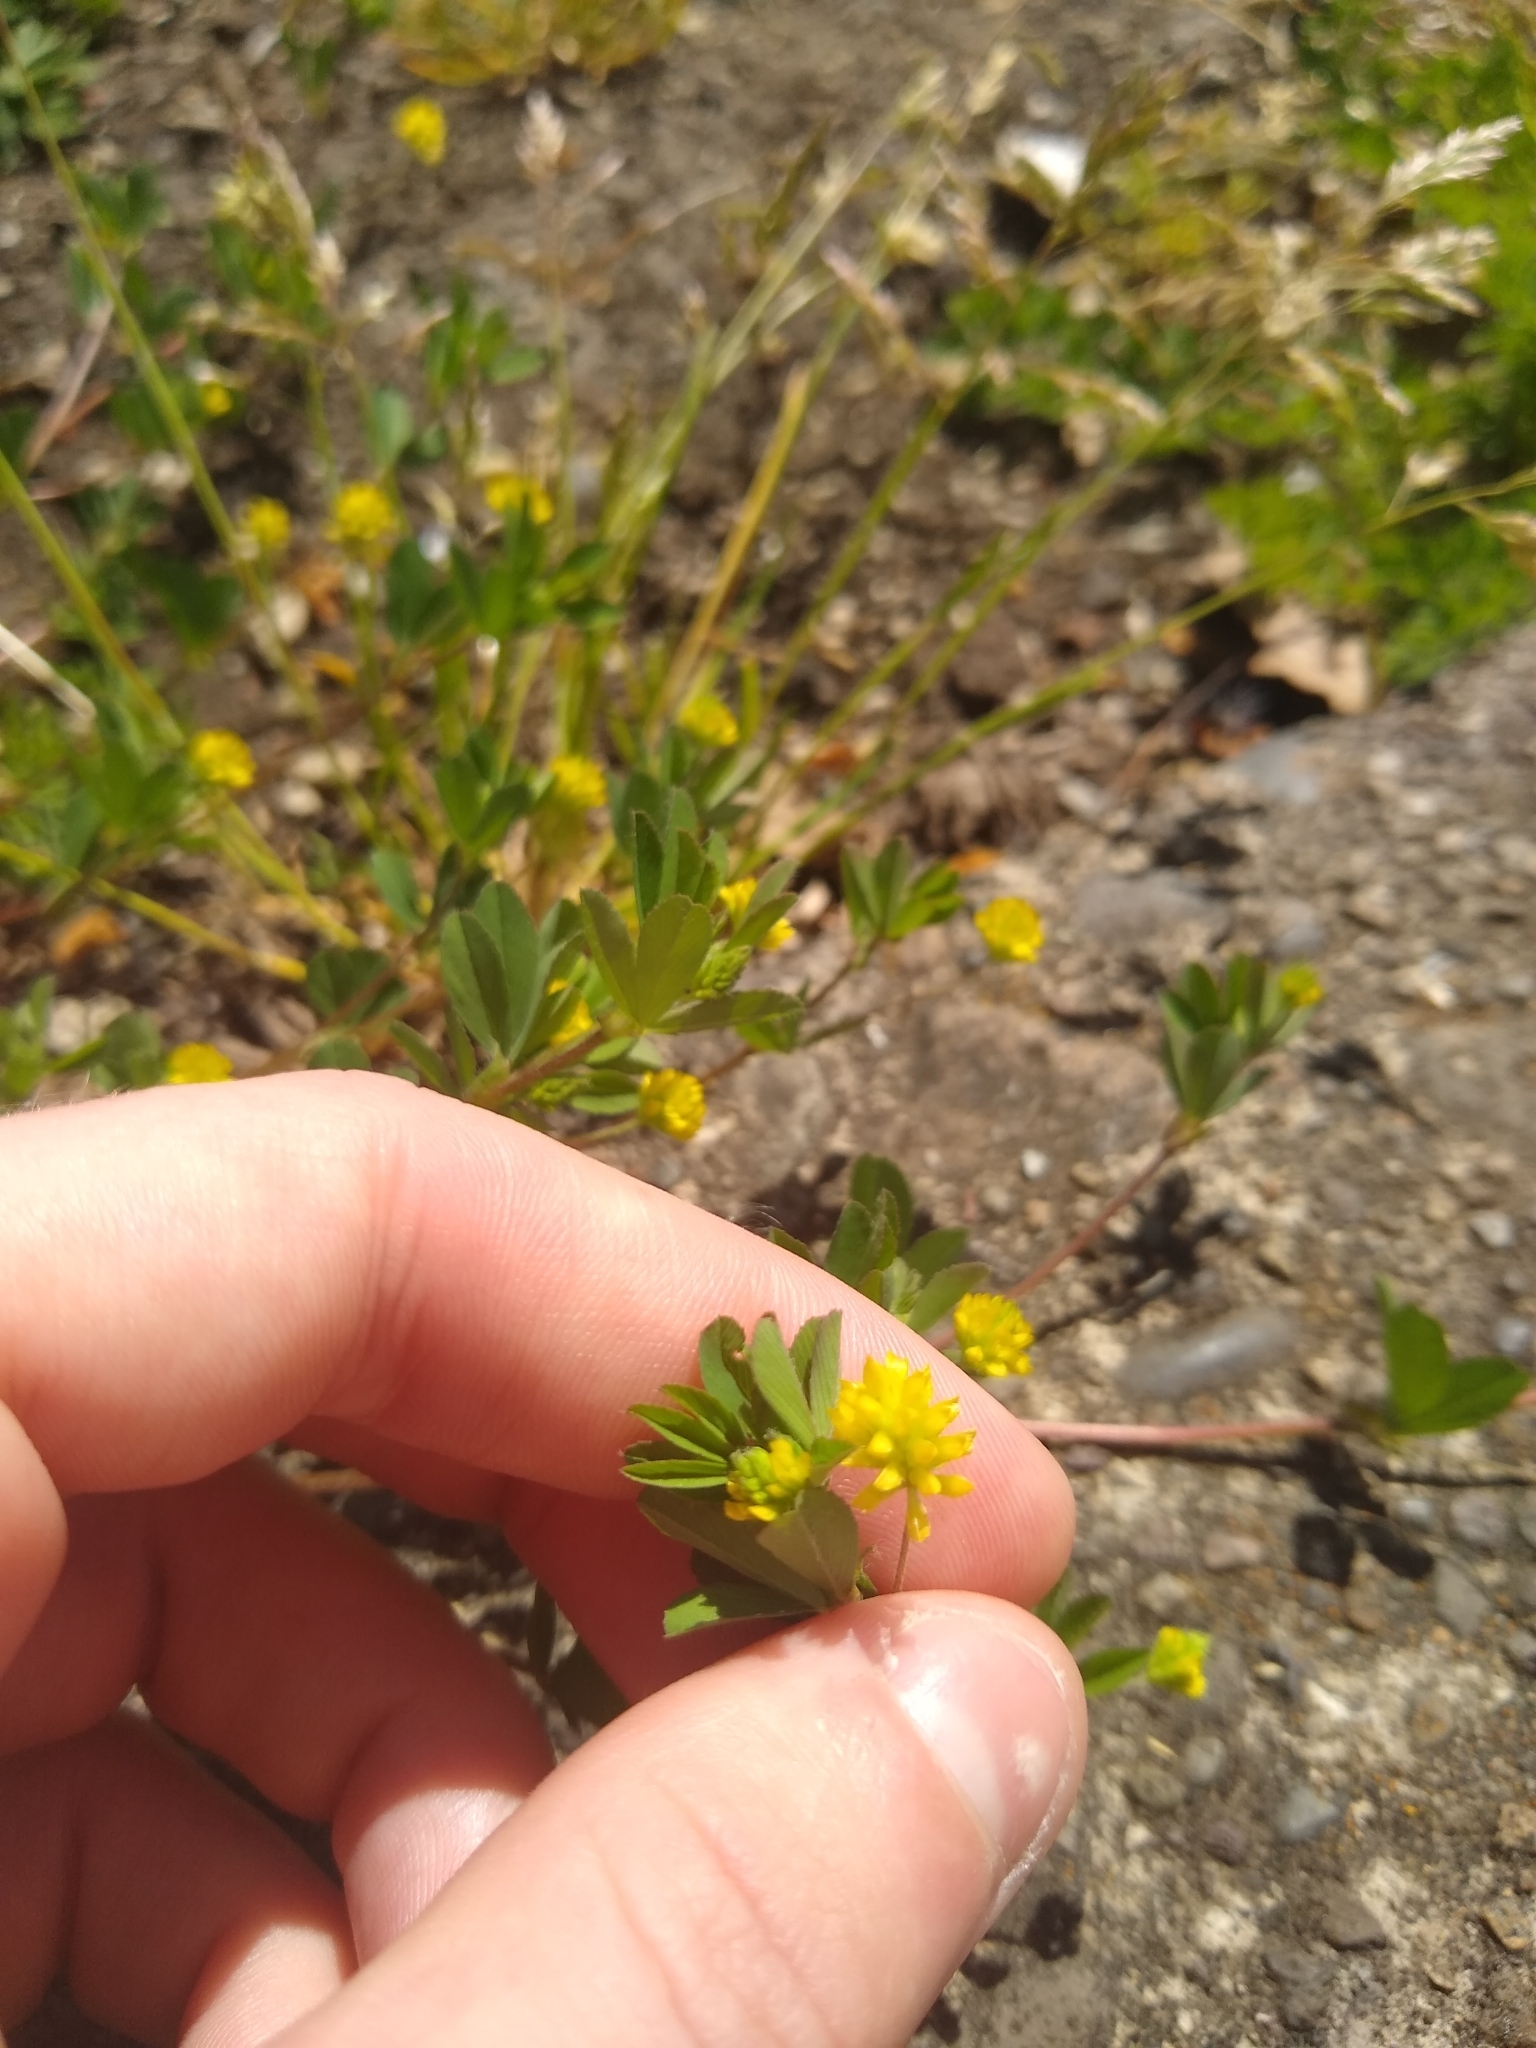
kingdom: Plantae
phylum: Tracheophyta
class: Magnoliopsida
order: Fabales
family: Fabaceae
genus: Trifolium
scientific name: Trifolium dubium
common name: Suckling clover
